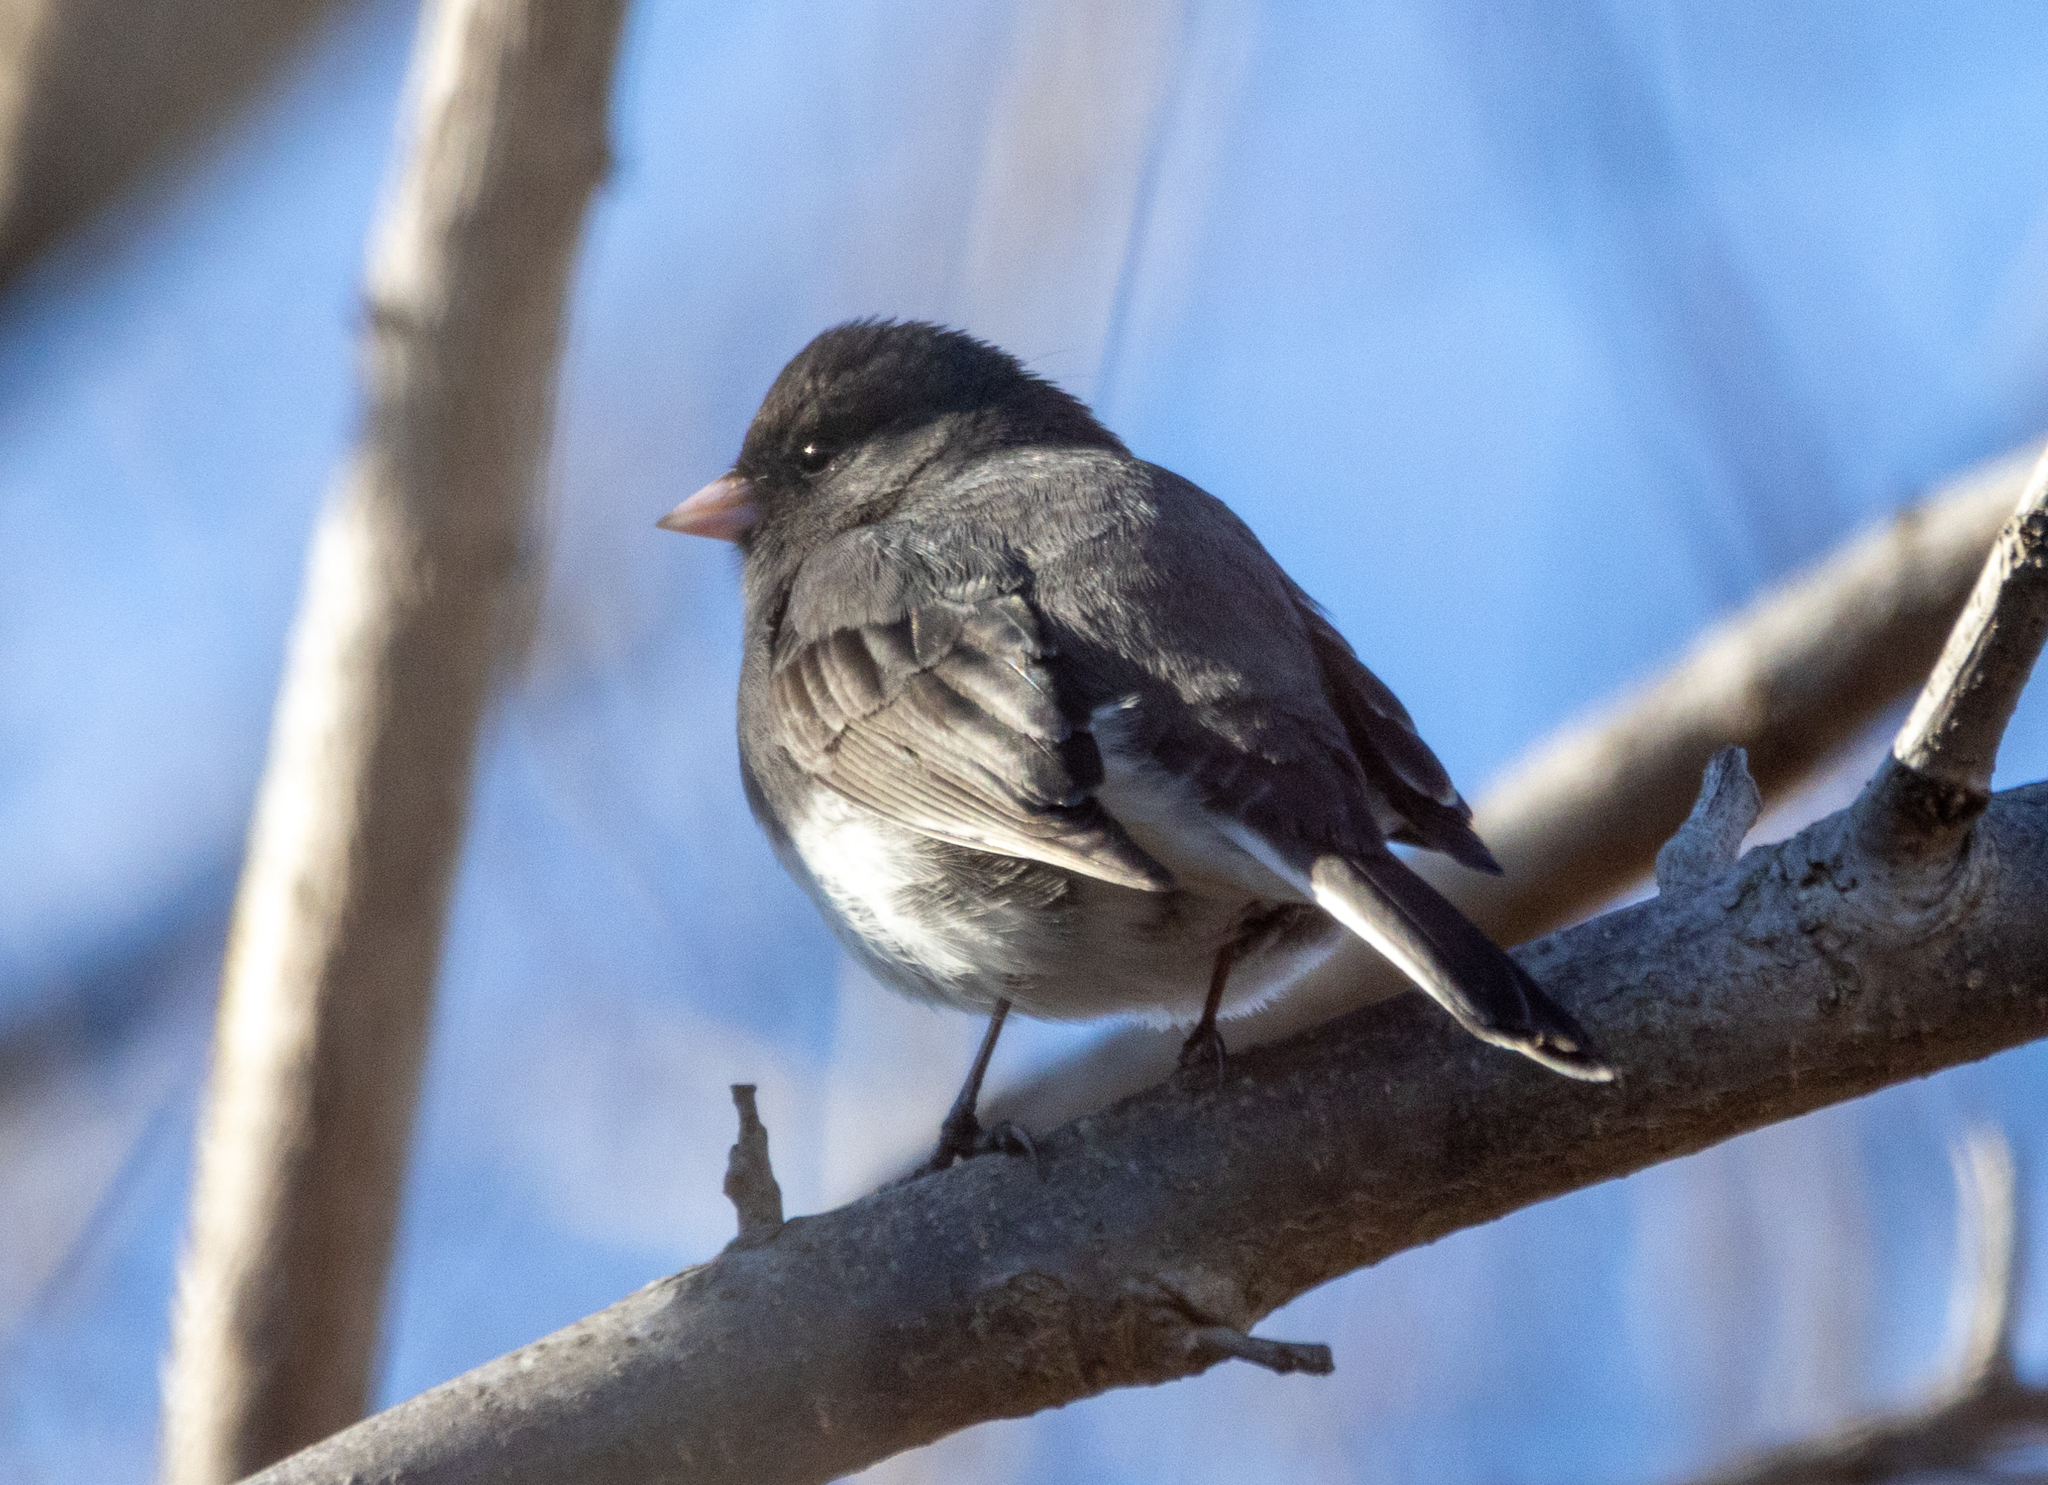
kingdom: Animalia
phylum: Chordata
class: Aves
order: Passeriformes
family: Passerellidae
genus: Junco
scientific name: Junco hyemalis
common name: Dark-eyed junco
